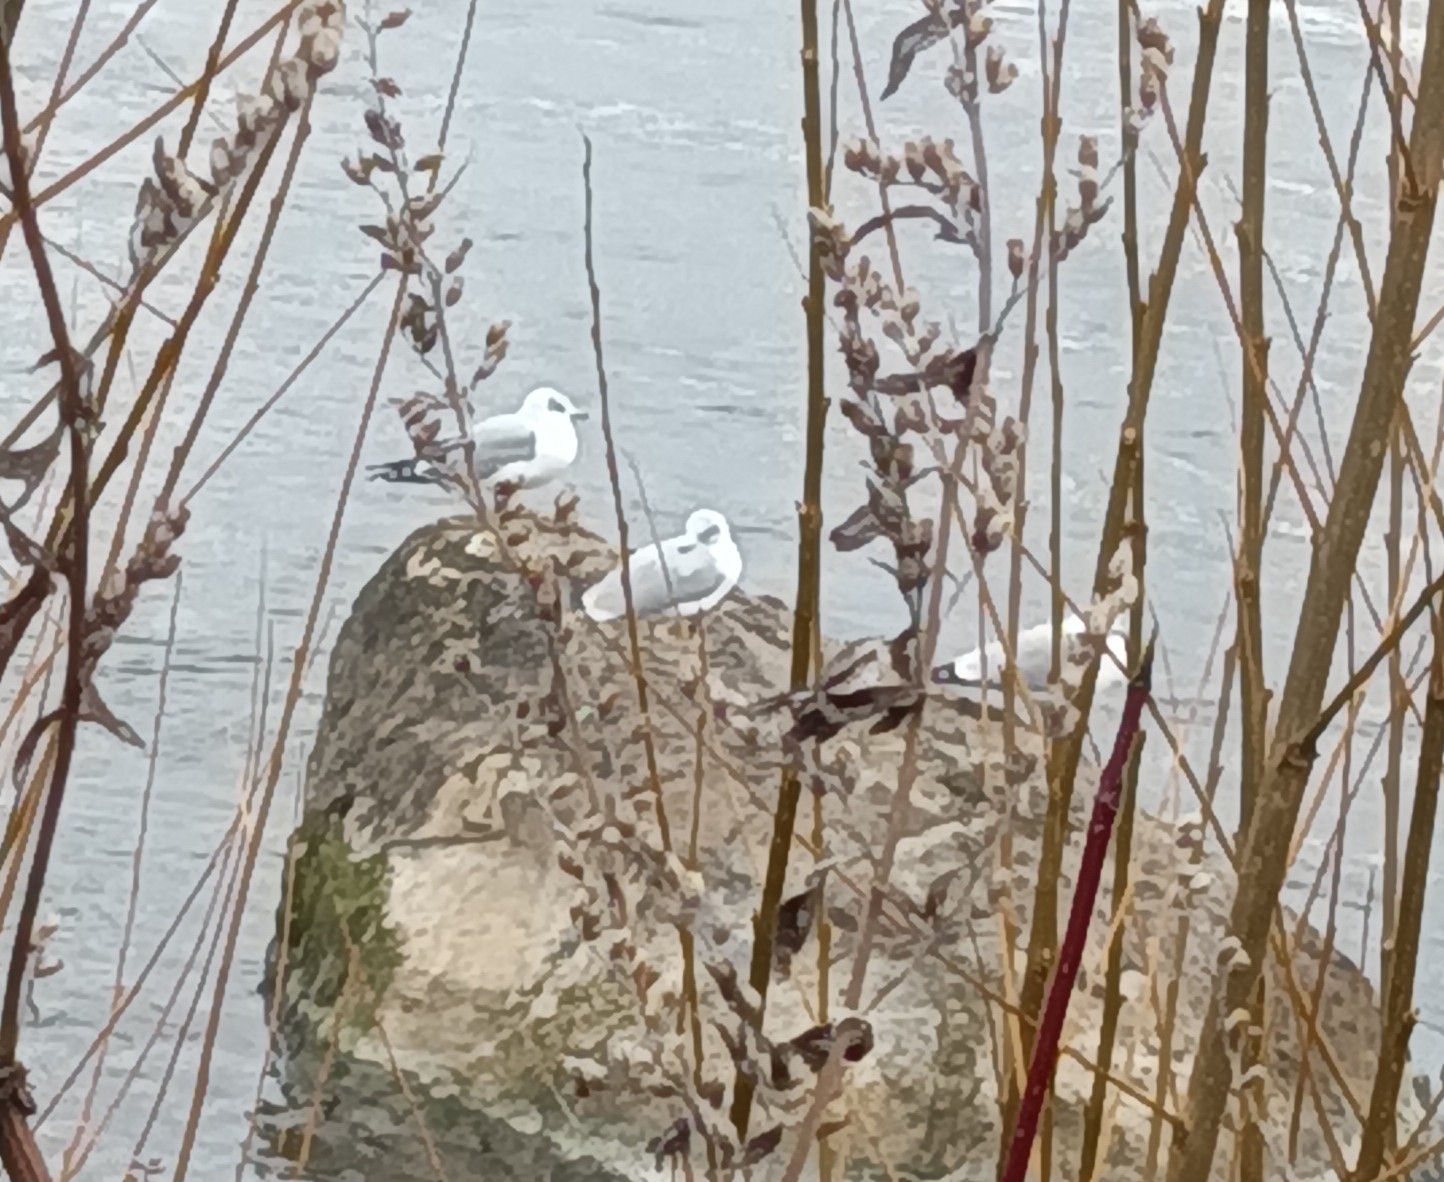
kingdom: Animalia
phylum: Chordata
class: Aves
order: Charadriiformes
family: Laridae
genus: Larus
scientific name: Larus delawarensis
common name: Ring-billed gull
